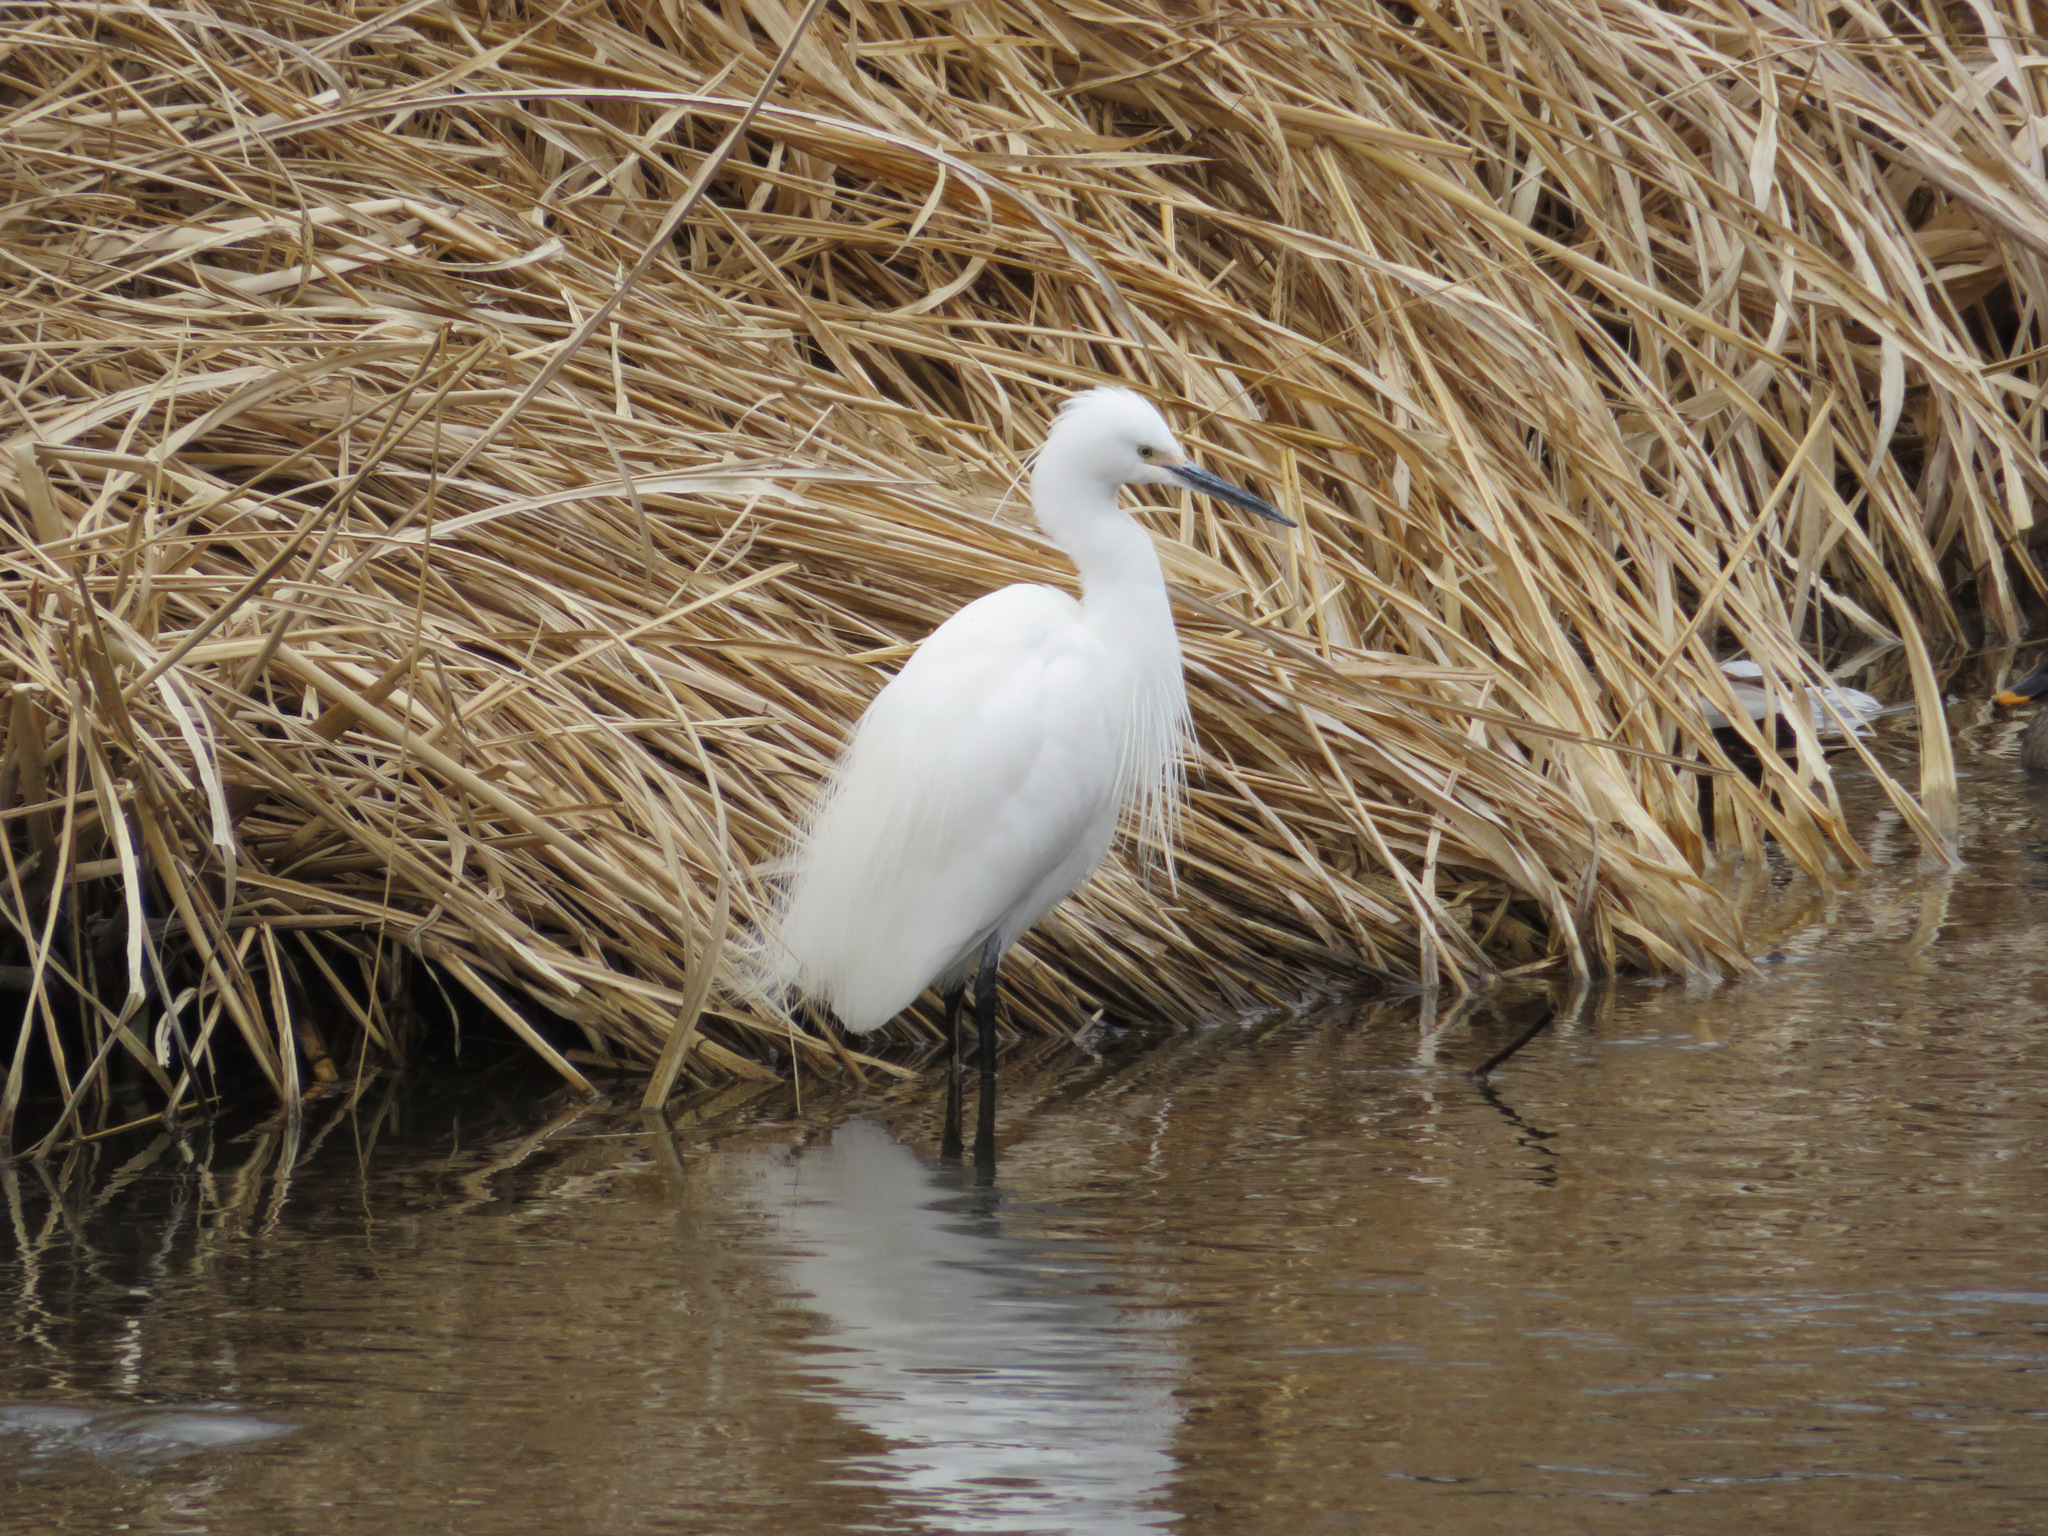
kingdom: Animalia
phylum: Chordata
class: Aves
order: Pelecaniformes
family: Ardeidae
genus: Egretta
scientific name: Egretta garzetta
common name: Little egret
